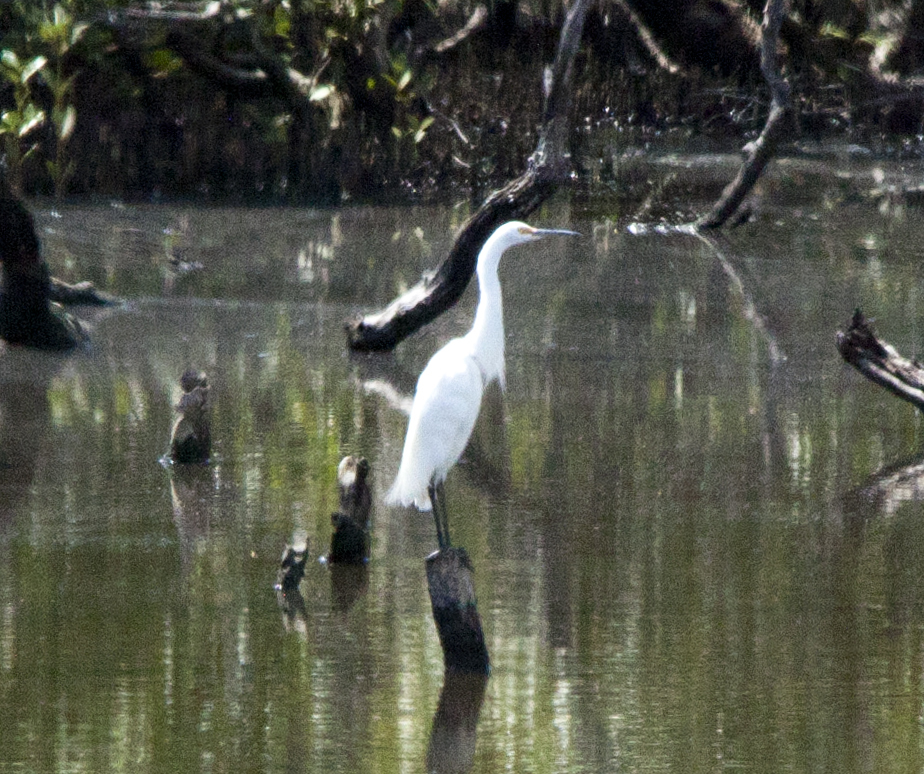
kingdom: Animalia
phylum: Chordata
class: Aves
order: Pelecaniformes
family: Ardeidae
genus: Egretta
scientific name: Egretta garzetta
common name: Little egret
